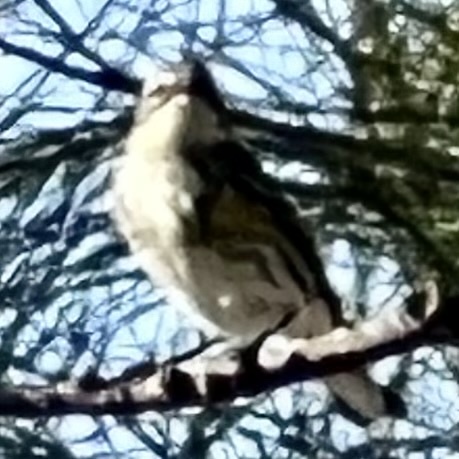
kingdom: Animalia
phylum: Chordata
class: Aves
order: Passeriformes
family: Parulidae
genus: Setophaga
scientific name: Setophaga coronata
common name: Myrtle warbler
